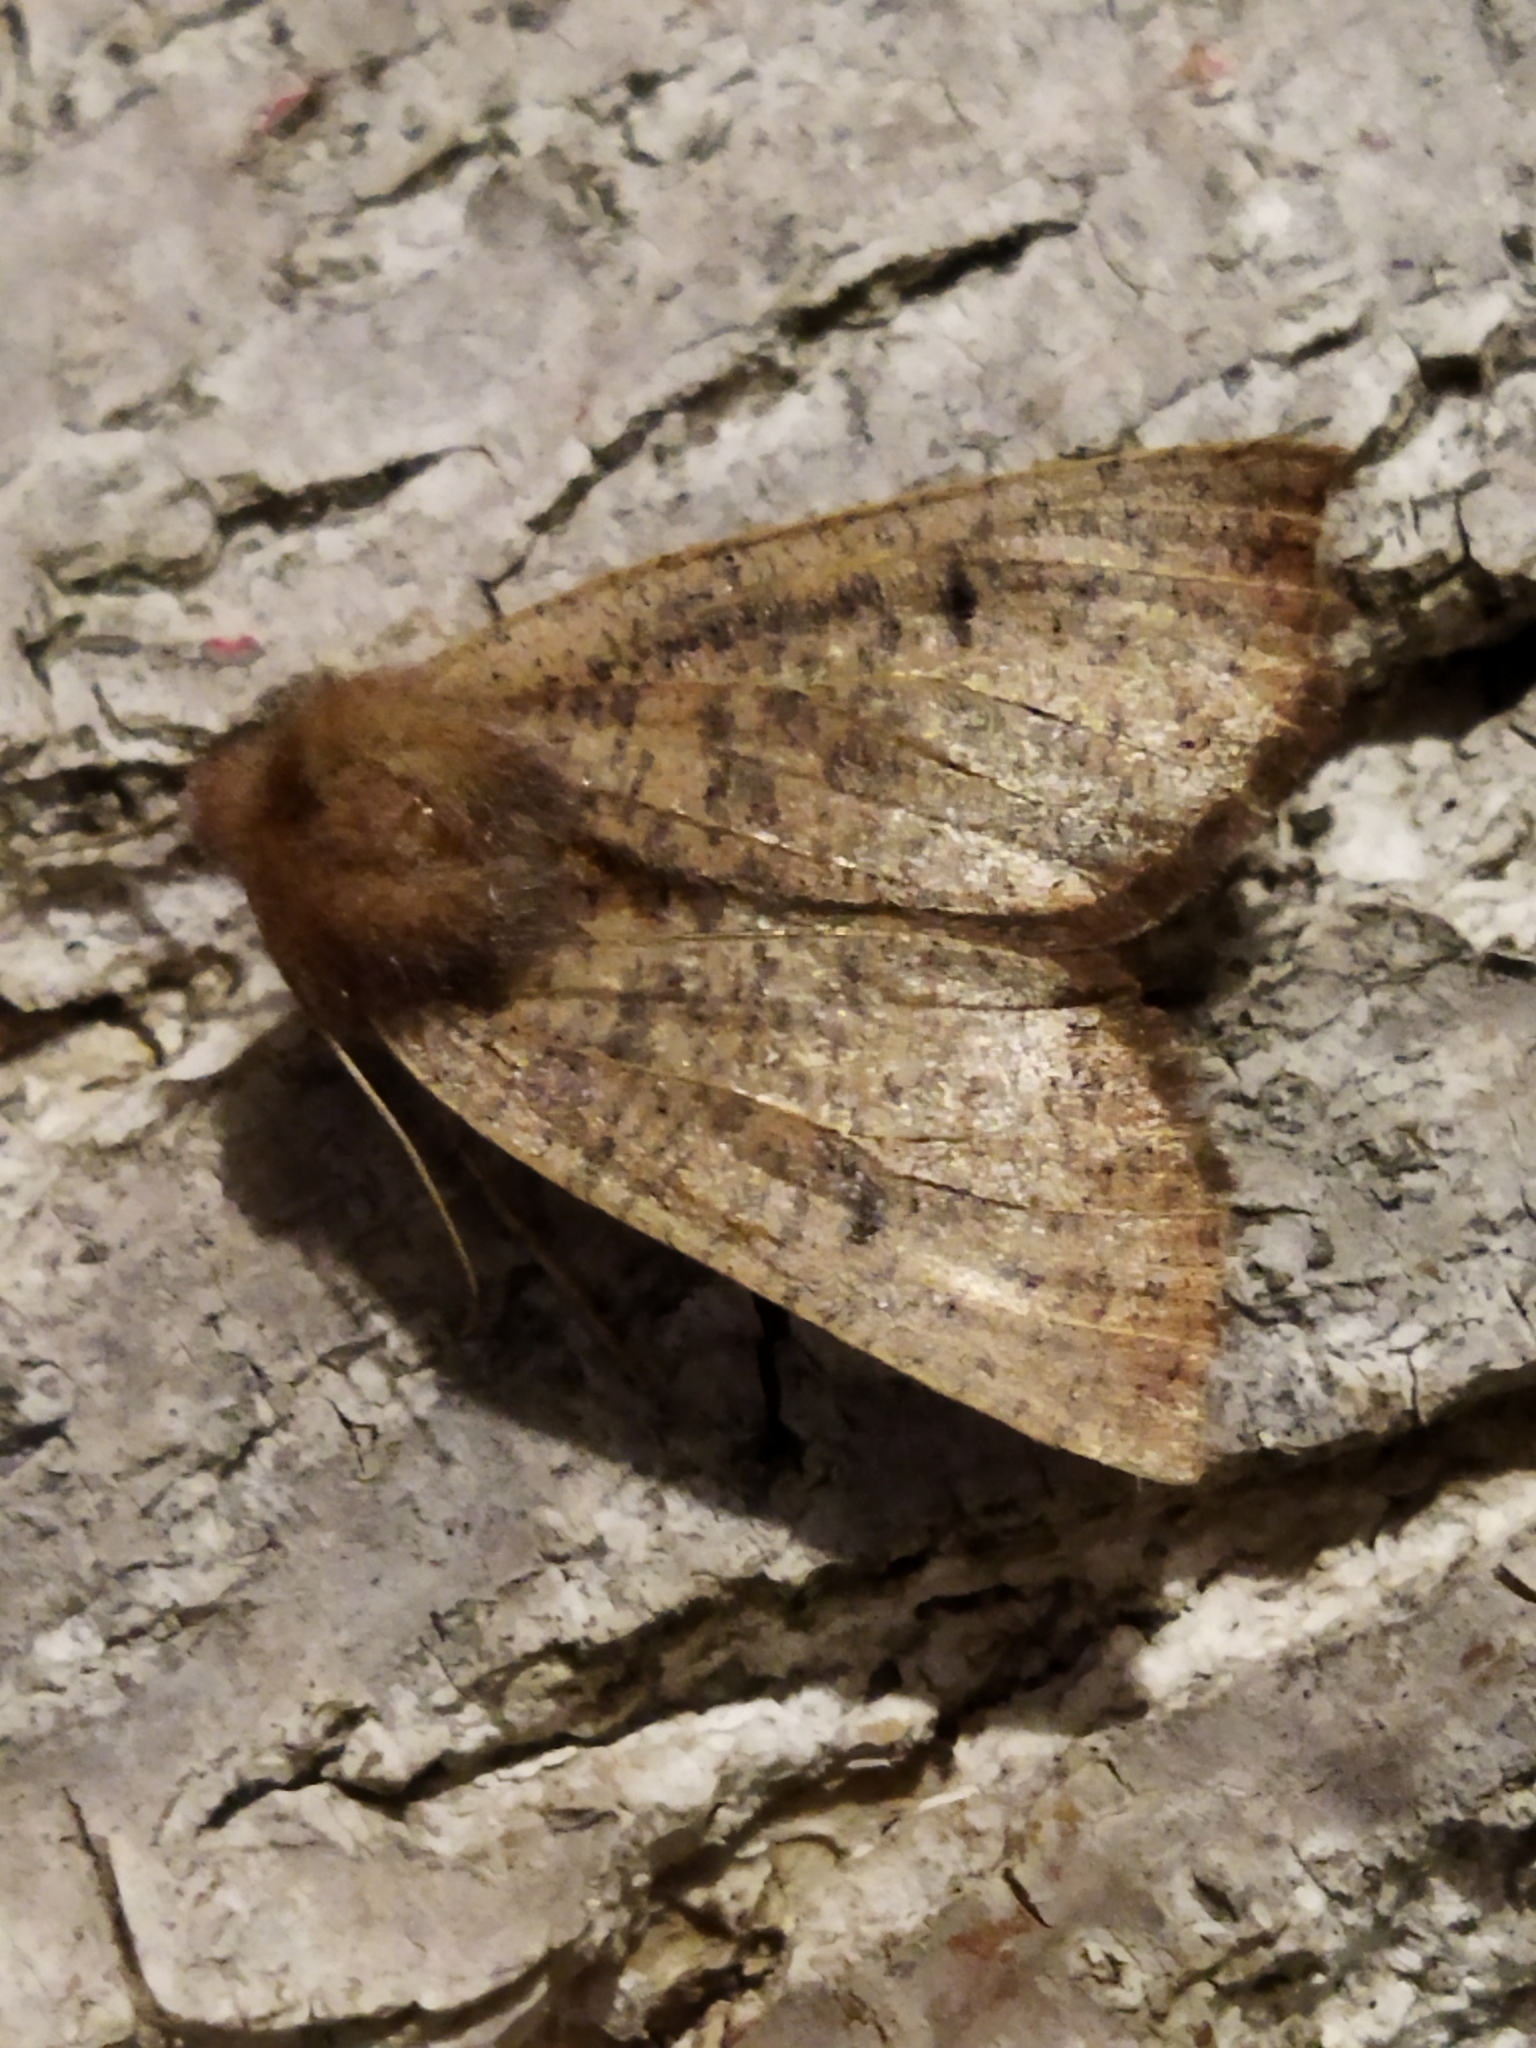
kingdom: Animalia
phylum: Arthropoda
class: Insecta
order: Lepidoptera
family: Geometridae
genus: Dasycorsa
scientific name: Dasycorsa modesta
